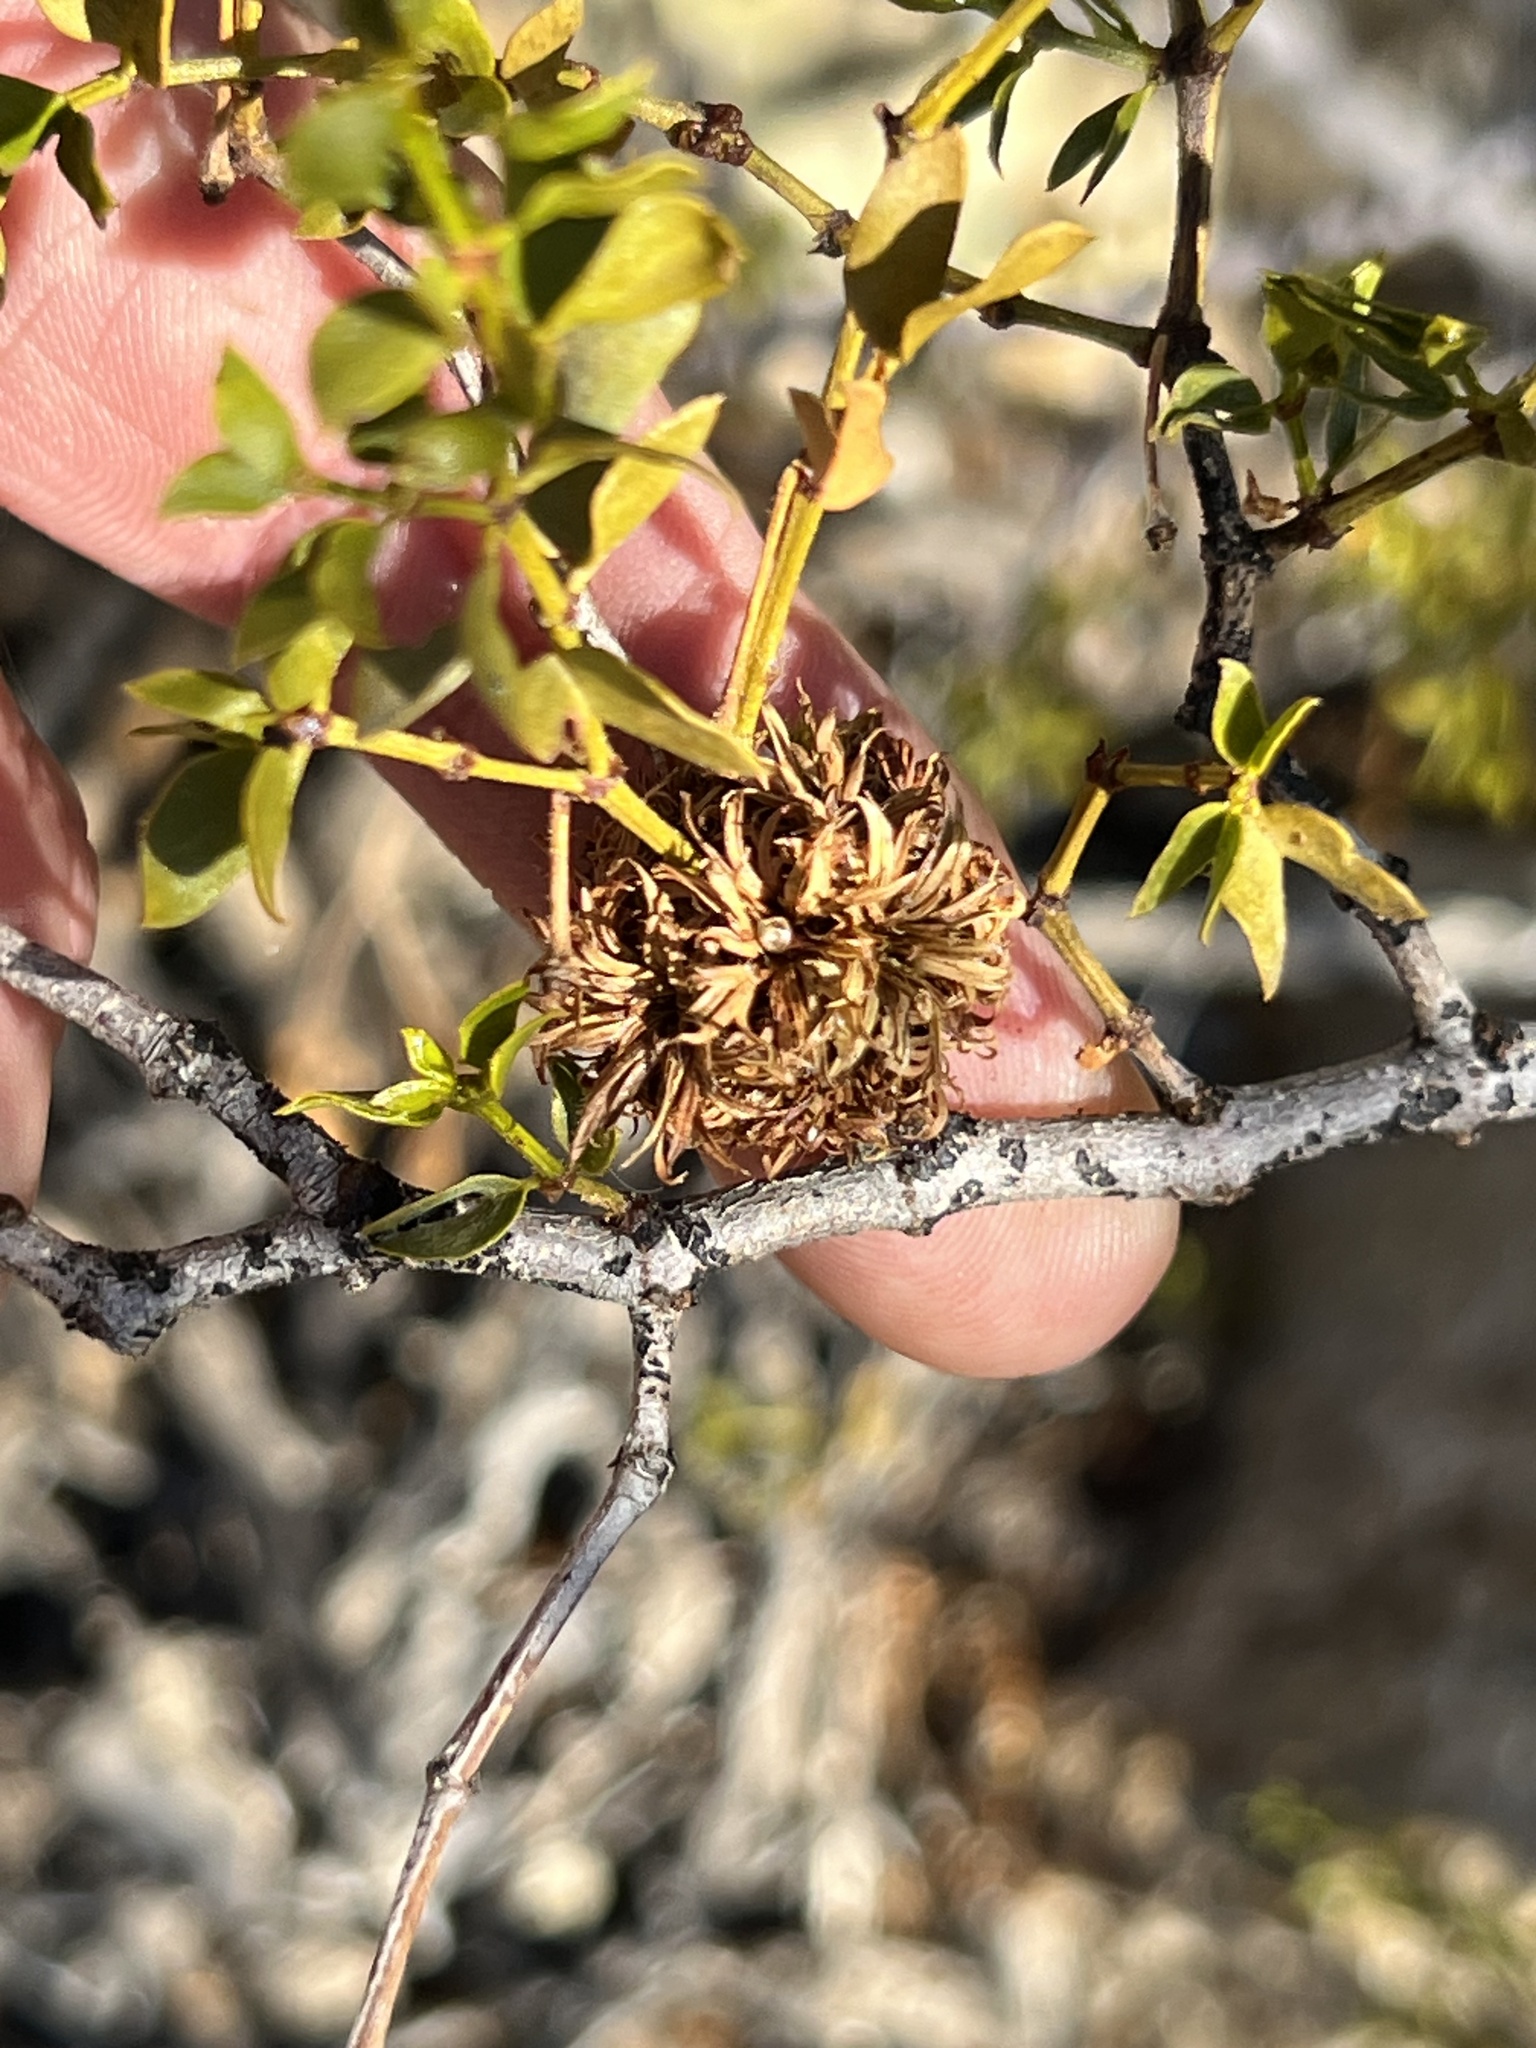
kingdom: Animalia
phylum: Arthropoda
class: Insecta
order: Diptera
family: Cecidomyiidae
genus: Asphondylia
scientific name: Asphondylia auripila
